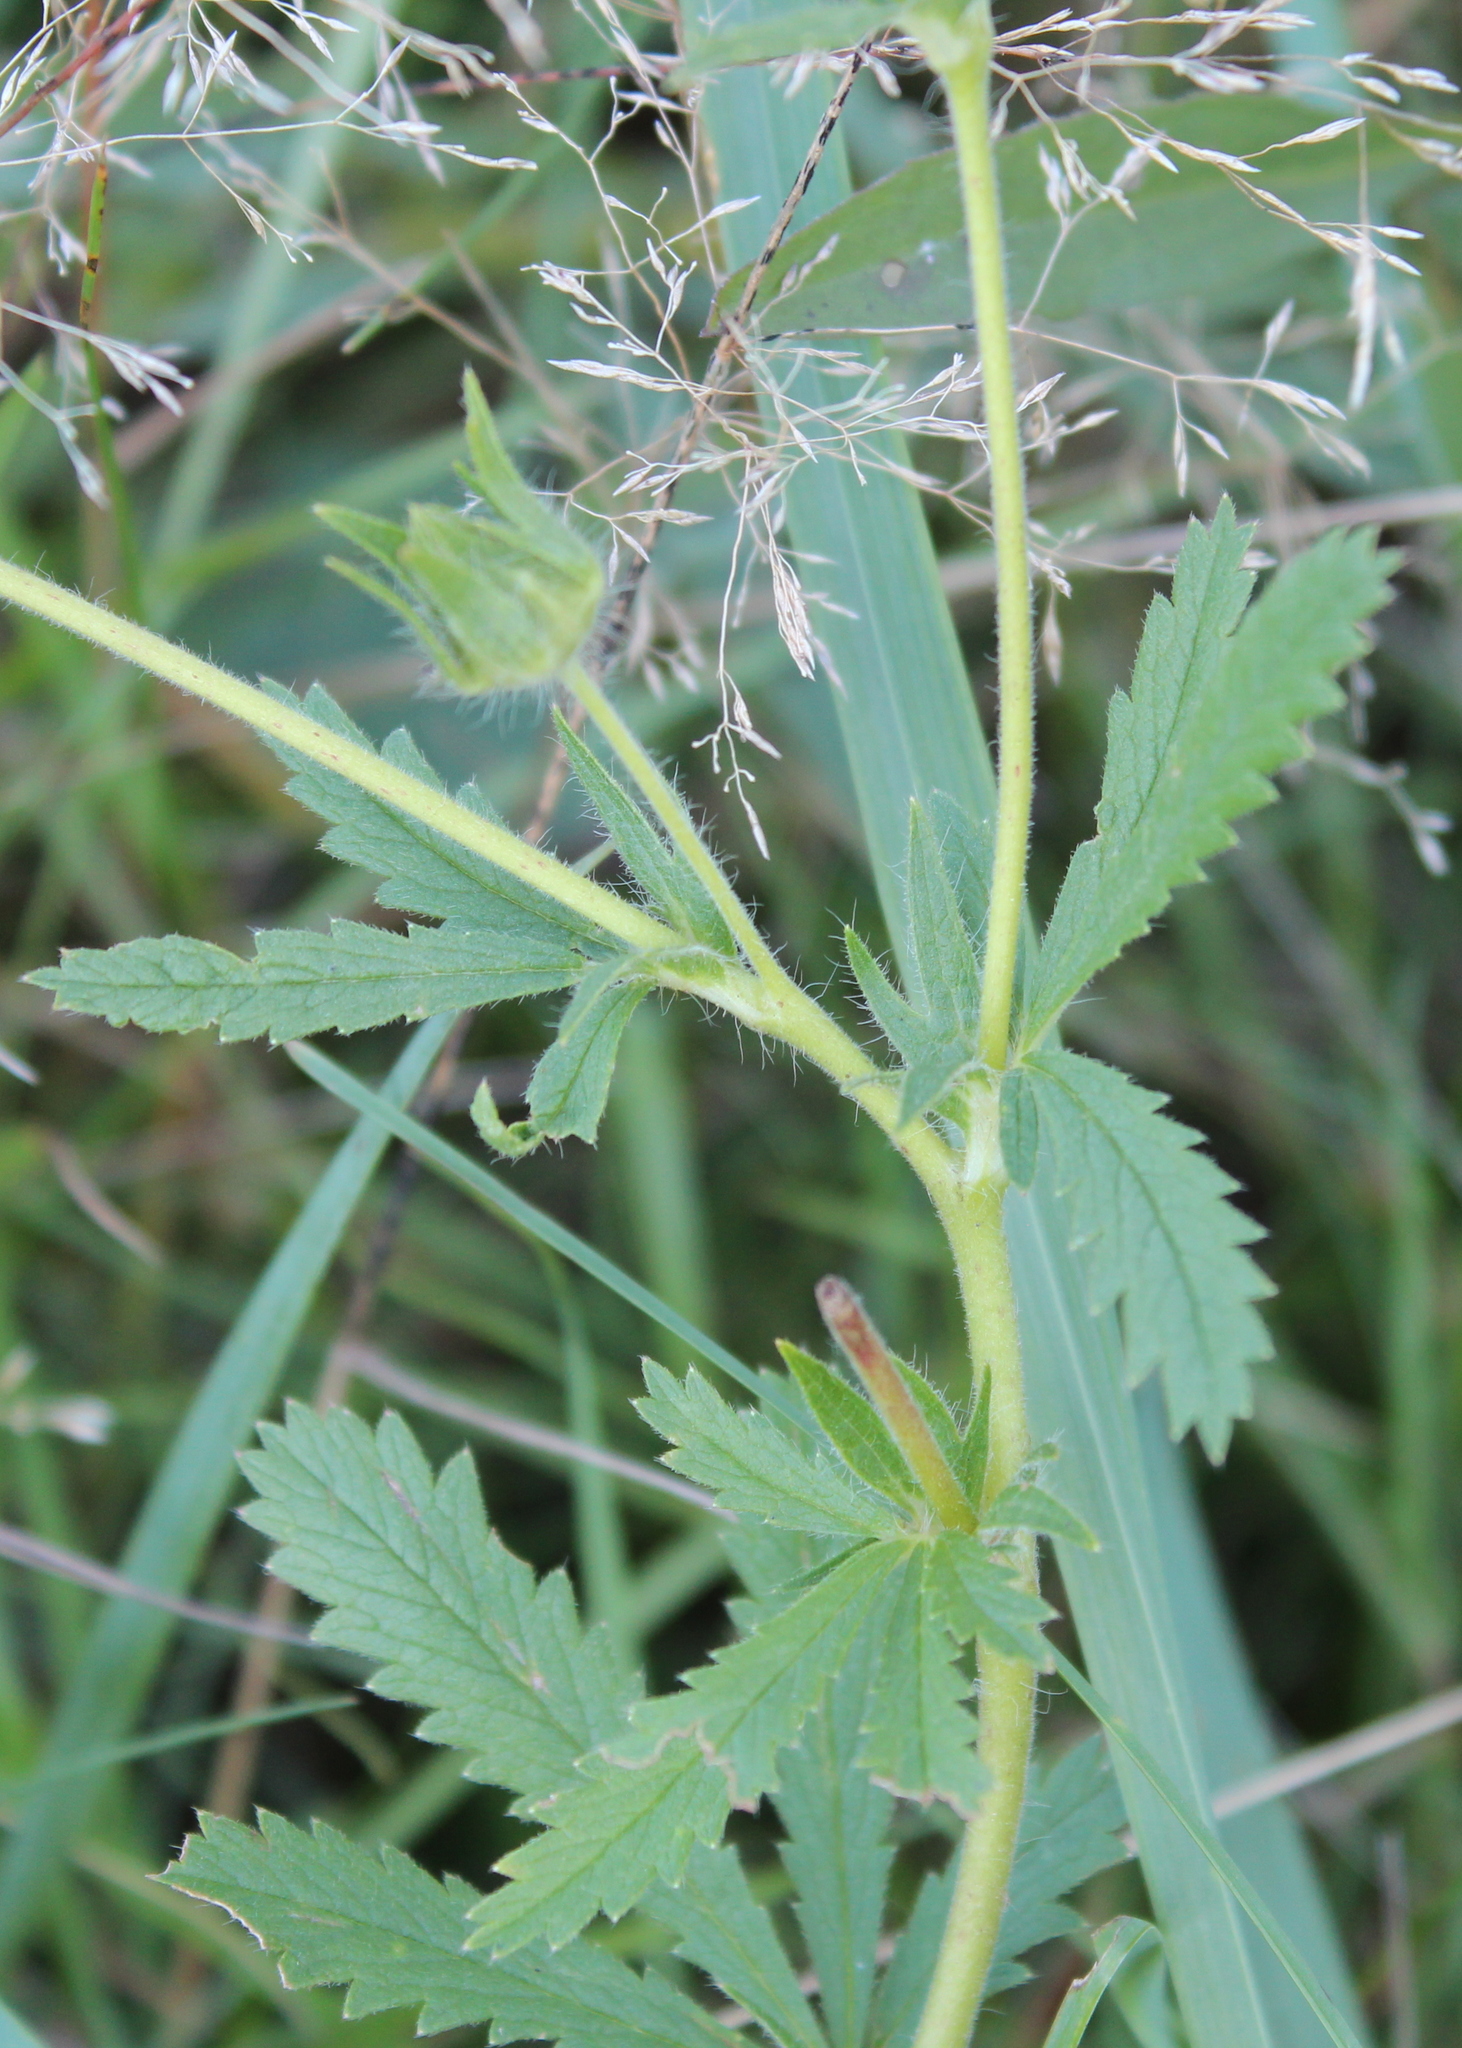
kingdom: Plantae
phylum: Tracheophyta
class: Magnoliopsida
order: Rosales
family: Rosaceae
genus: Potentilla
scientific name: Potentilla recta
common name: Sulphur cinquefoil
